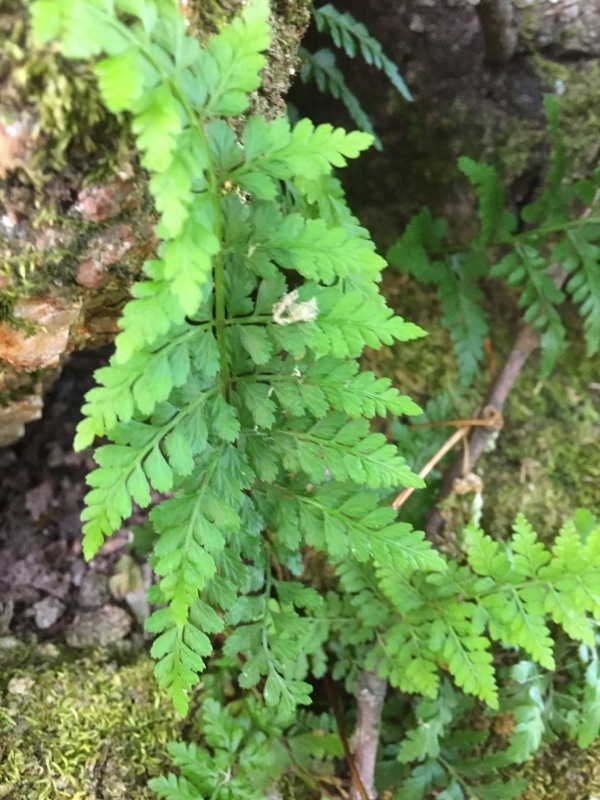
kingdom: Plantae
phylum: Tracheophyta
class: Polypodiopsida
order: Polypodiales
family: Aspleniaceae
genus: Asplenium
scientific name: Asplenium obovatum
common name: Lanceolate spleenwort
